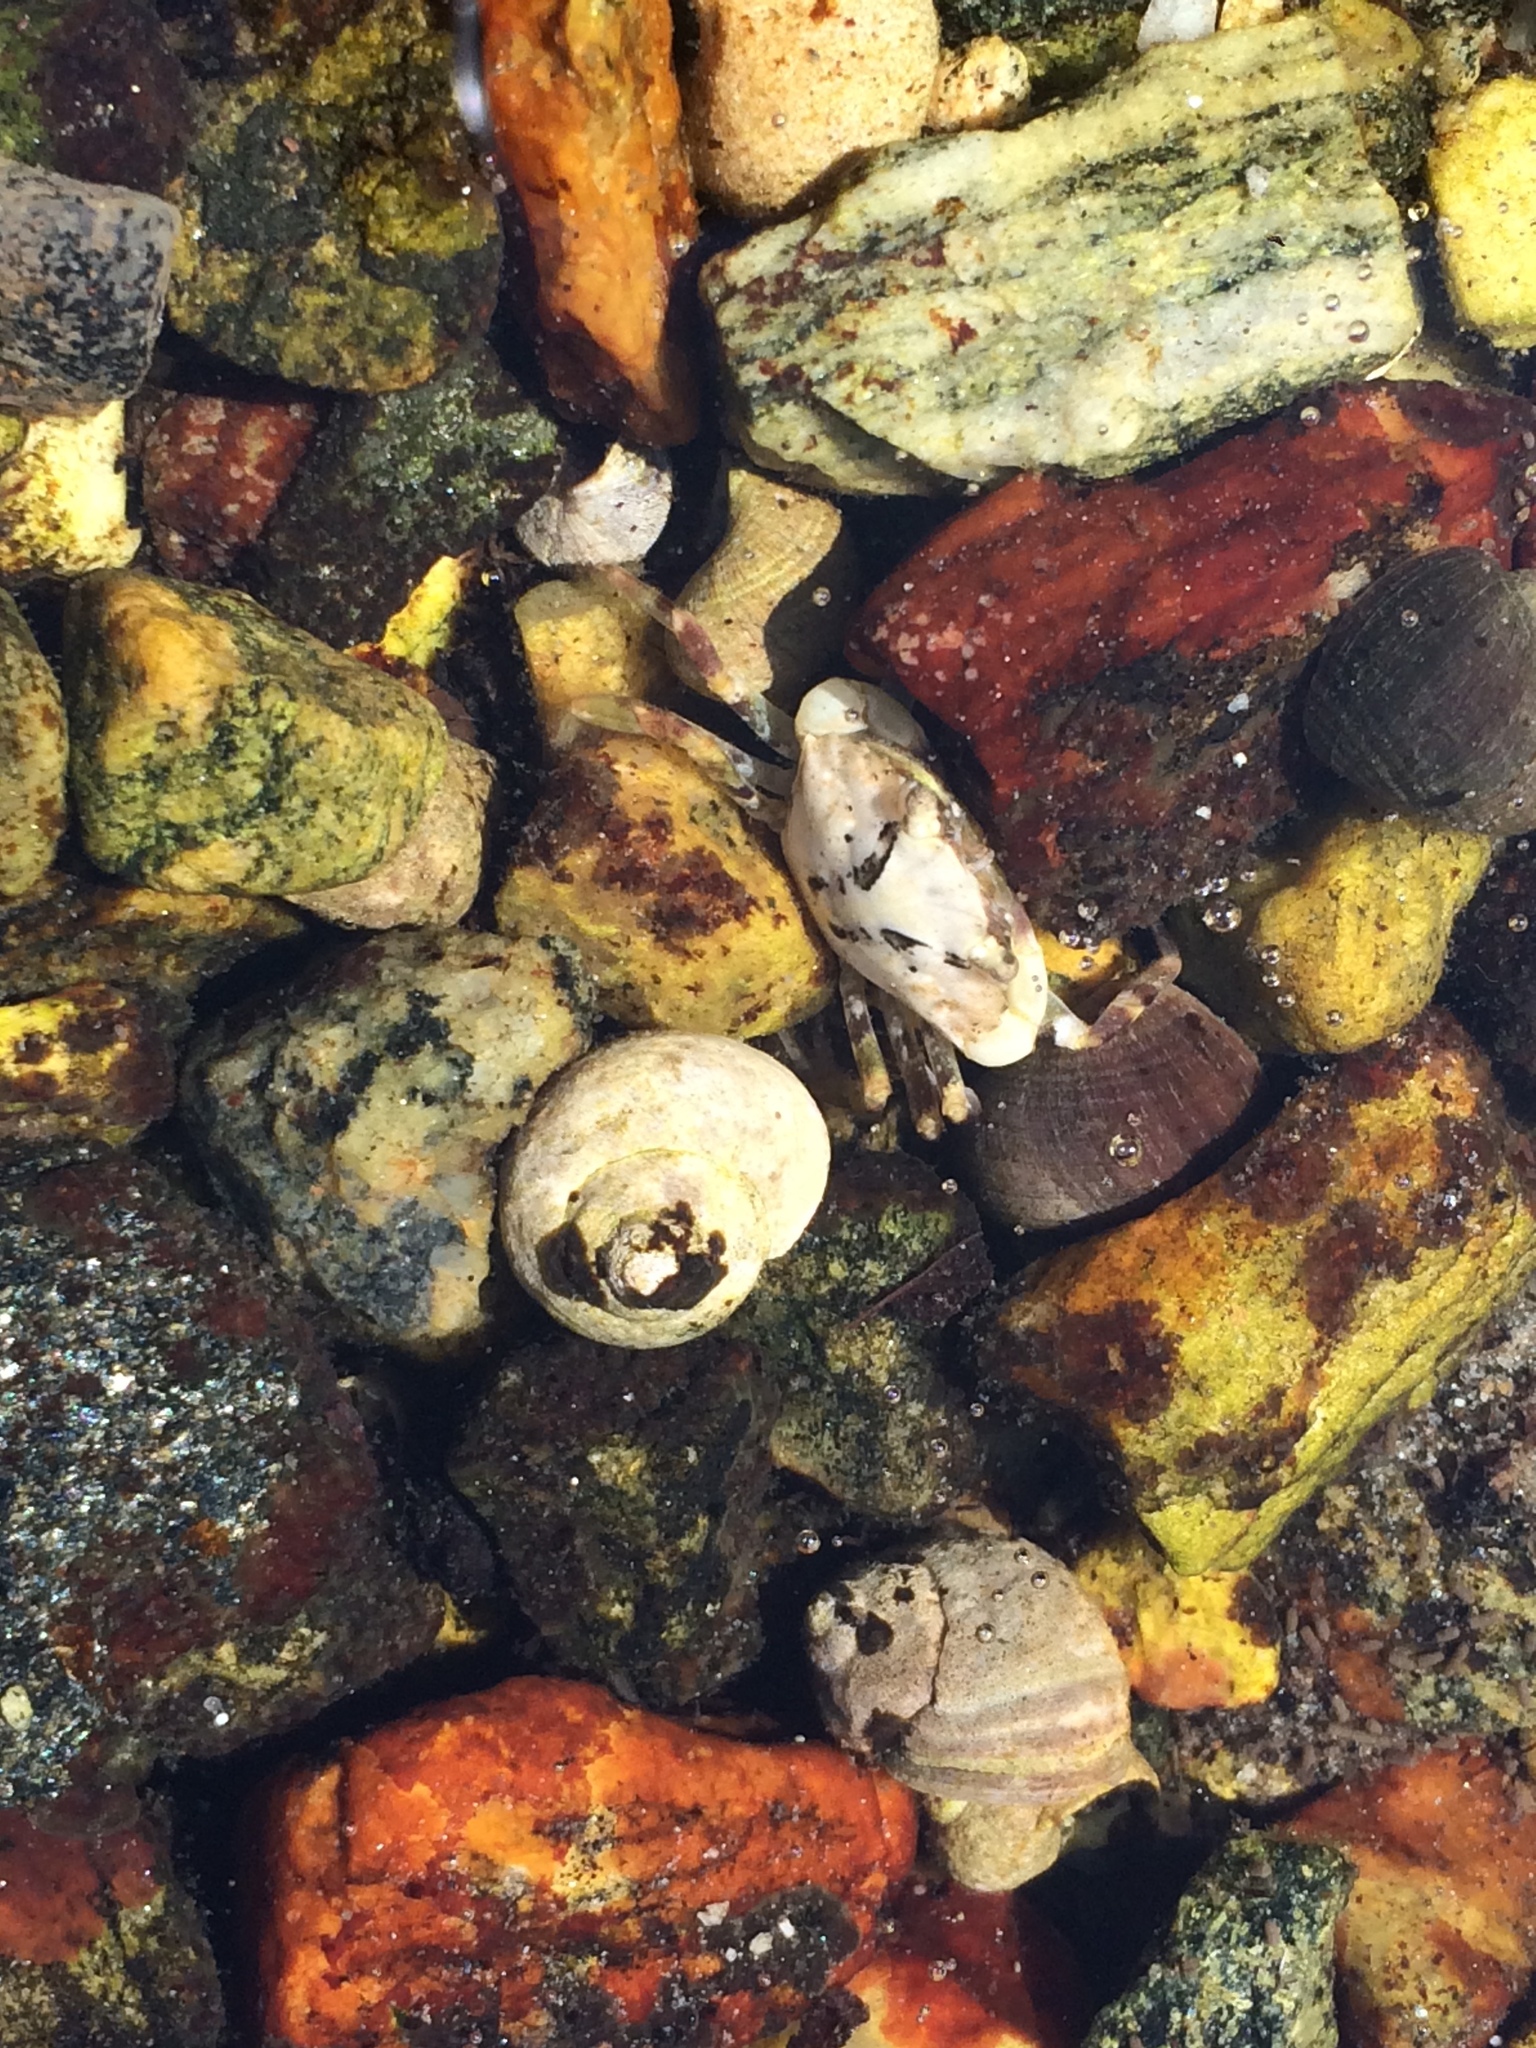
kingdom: Animalia
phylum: Arthropoda
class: Malacostraca
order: Decapoda
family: Carcinidae
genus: Carcinus
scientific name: Carcinus maenas
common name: European green crab
